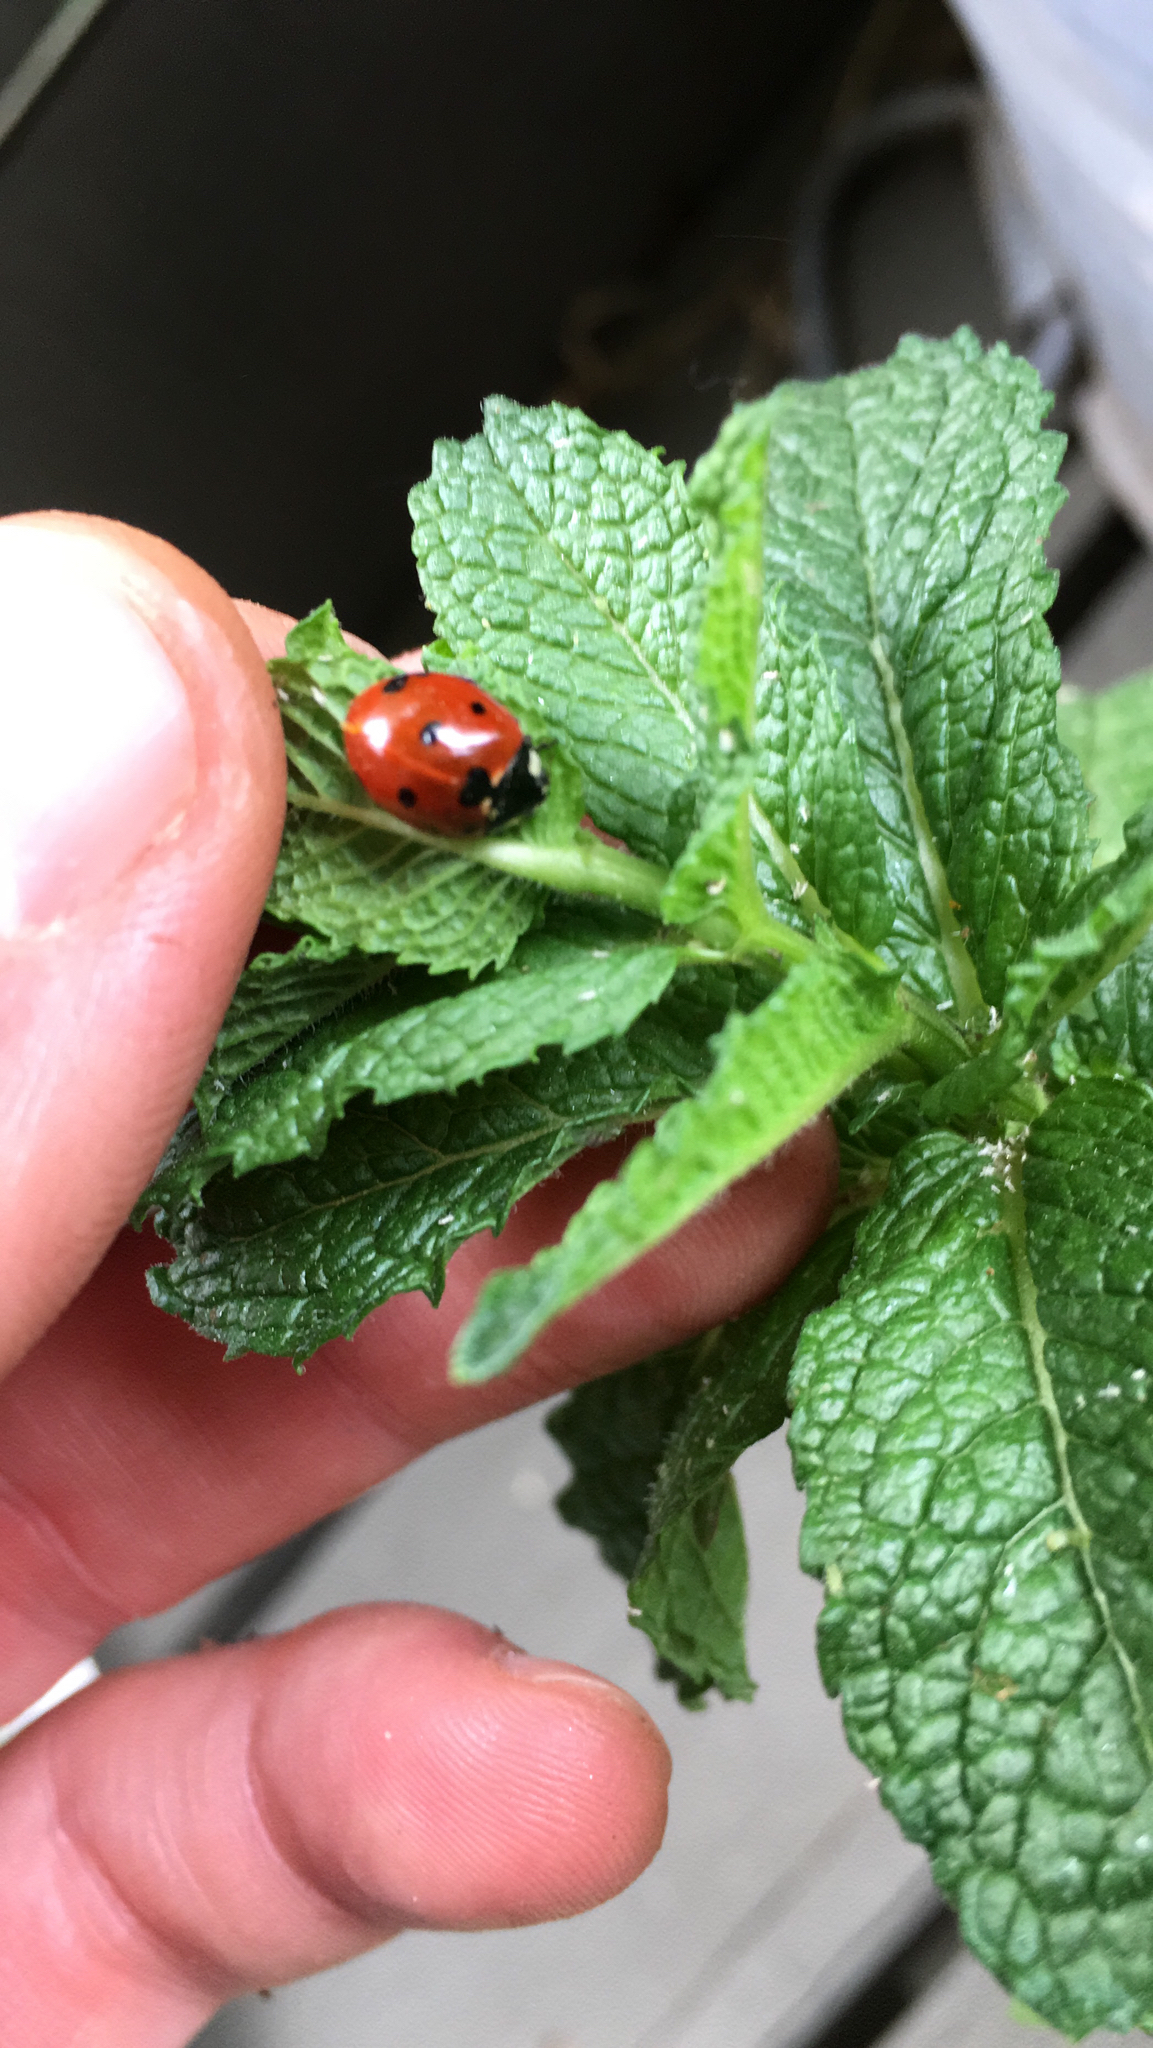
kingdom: Animalia
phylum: Arthropoda
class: Insecta
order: Coleoptera
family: Coccinellidae
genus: Coccinella
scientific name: Coccinella septempunctata
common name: Sevenspotted lady beetle
